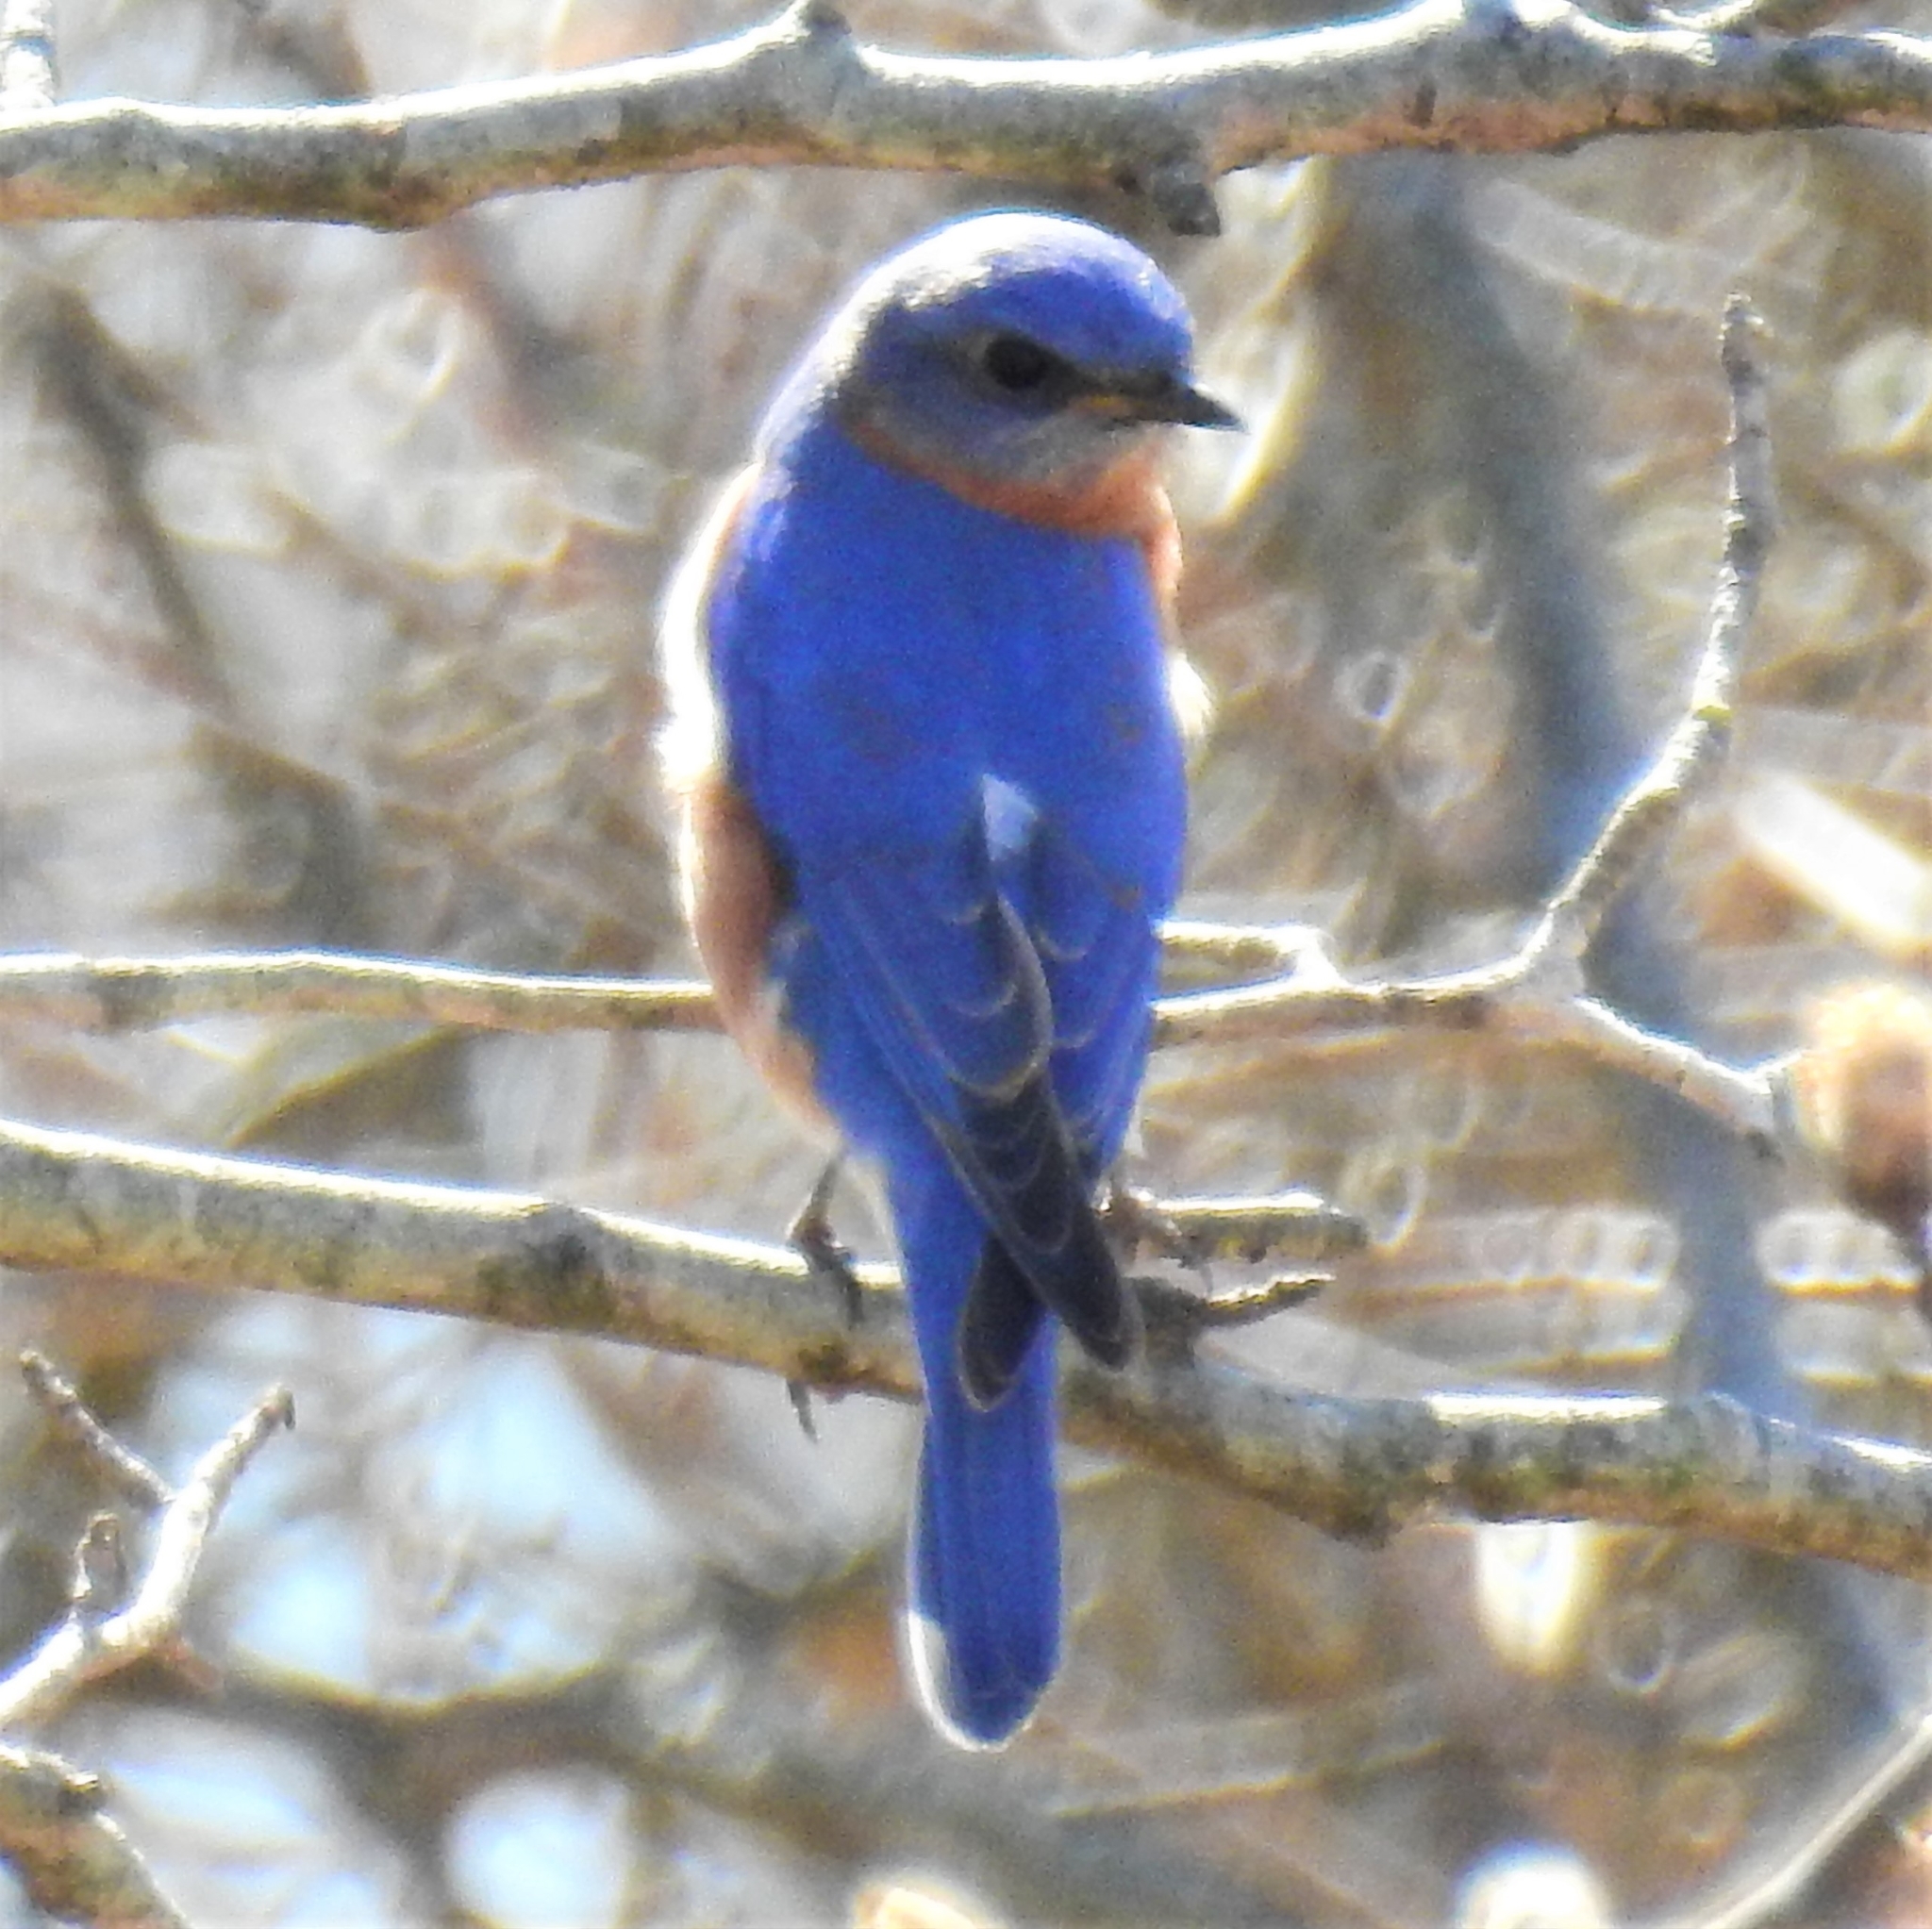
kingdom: Animalia
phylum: Chordata
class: Aves
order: Passeriformes
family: Turdidae
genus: Sialia
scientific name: Sialia sialis
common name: Eastern bluebird
